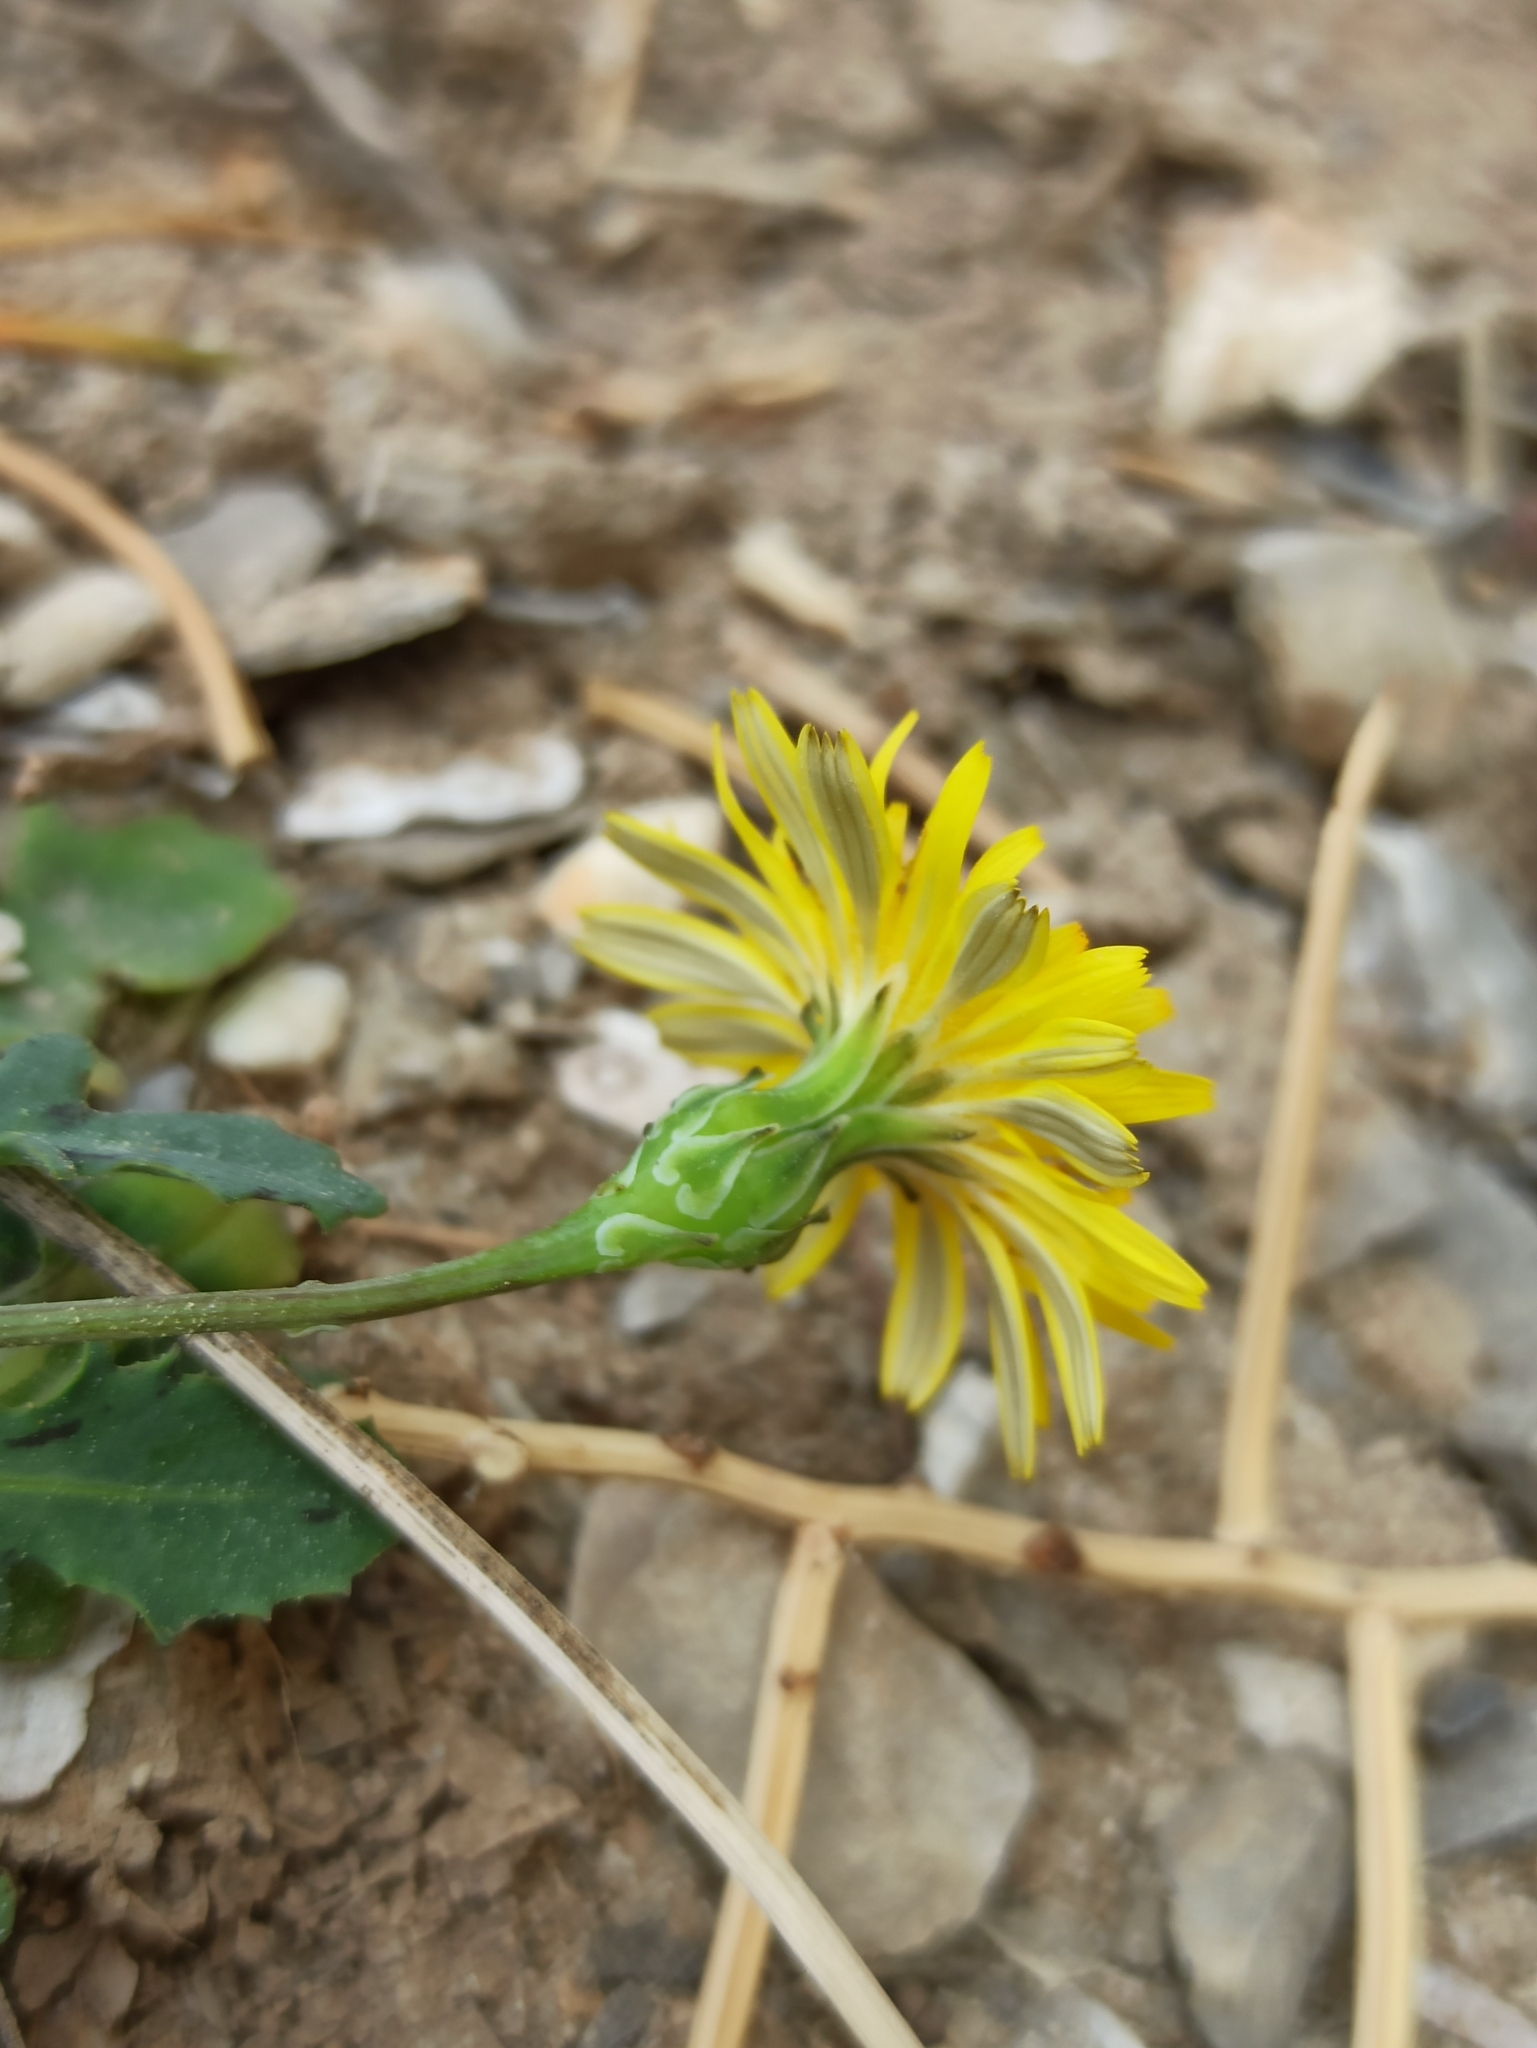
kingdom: Plantae
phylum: Tracheophyta
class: Magnoliopsida
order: Asterales
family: Asteraceae
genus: Reichardia
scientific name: Reichardia picroides
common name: Common brighteyes
